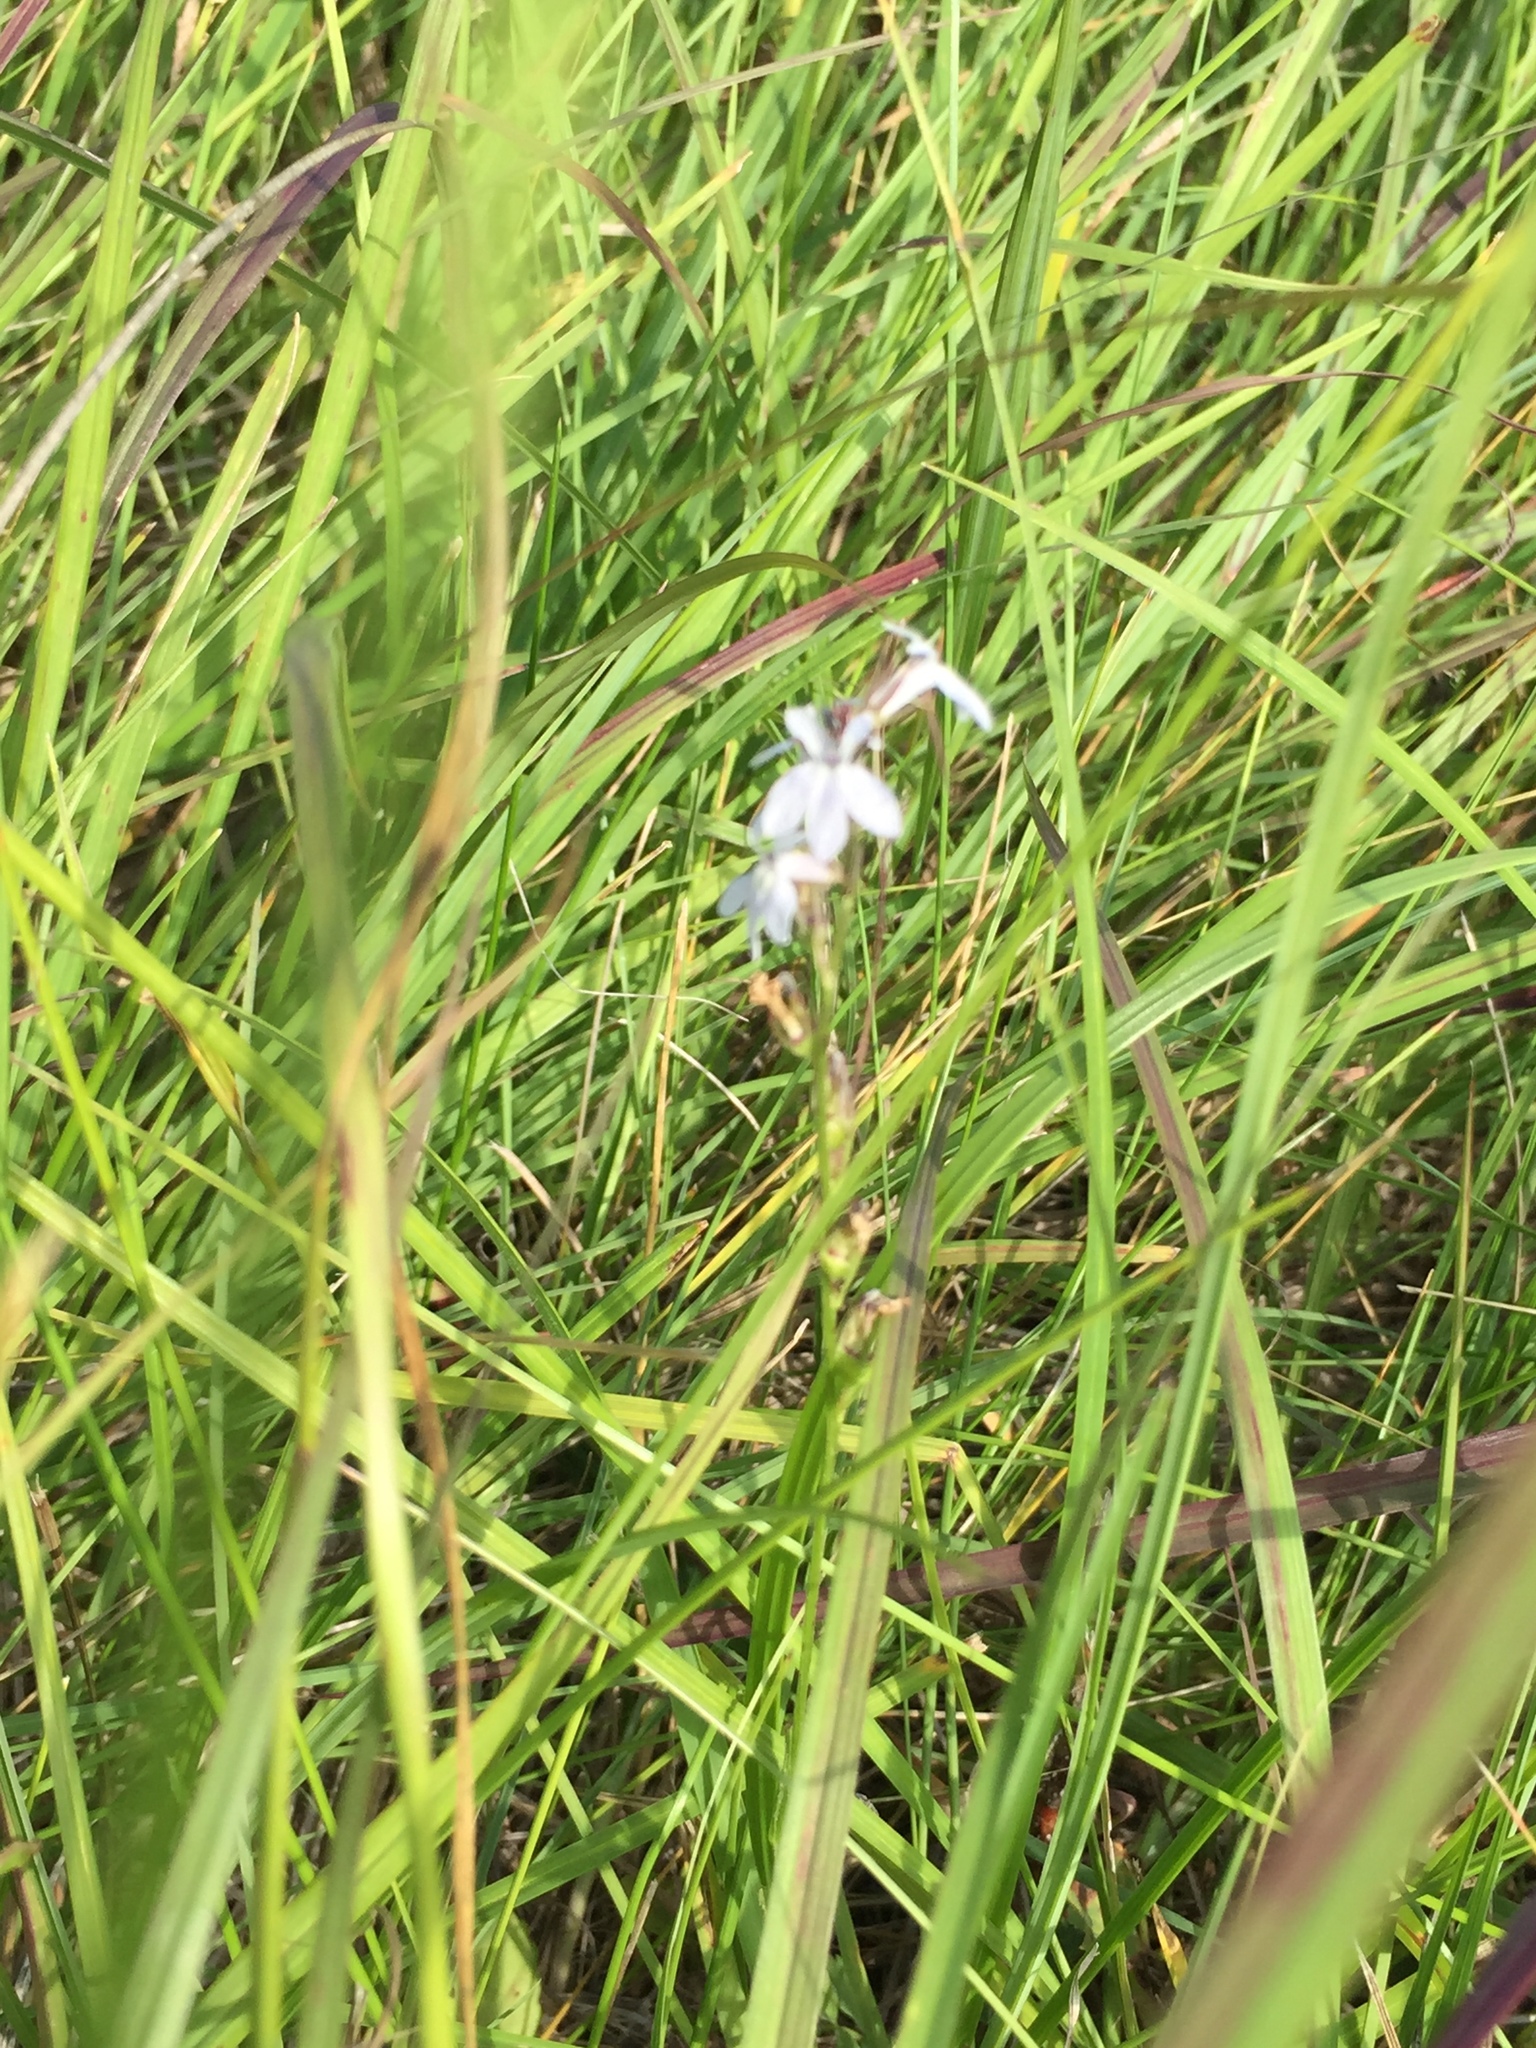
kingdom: Plantae
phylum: Tracheophyta
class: Magnoliopsida
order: Asterales
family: Campanulaceae
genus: Lobelia
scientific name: Lobelia spicata
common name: Pale-spike lobelia
